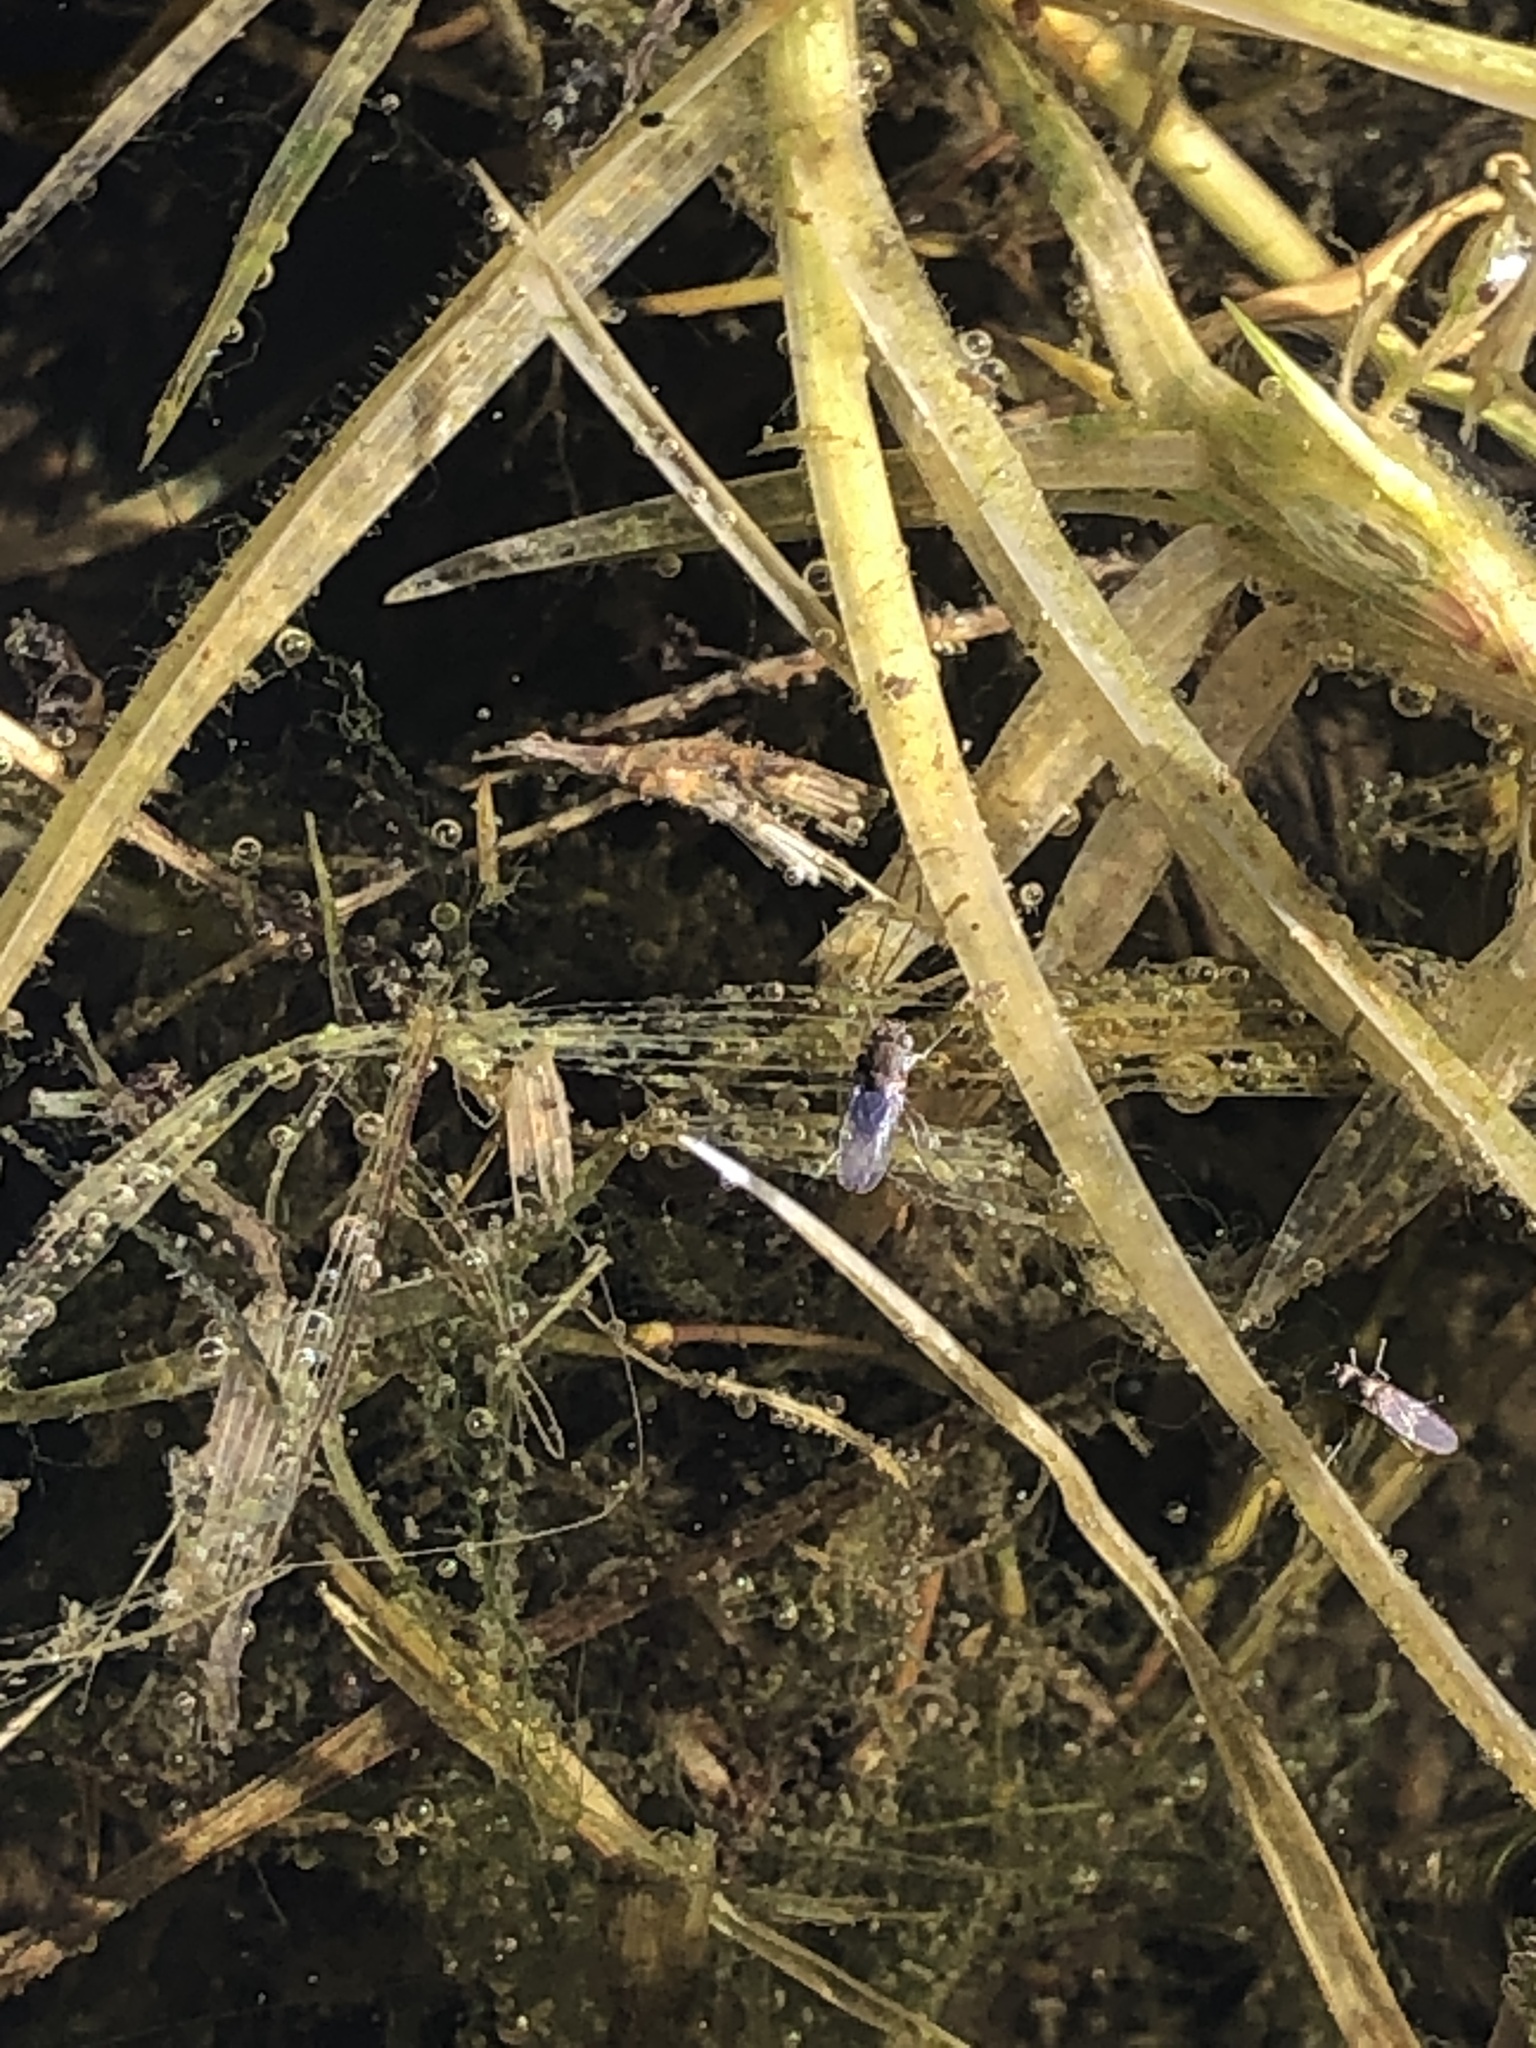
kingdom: Animalia
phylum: Arthropoda
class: Insecta
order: Diptera
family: Ephydridae
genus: Brachydeutera
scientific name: Brachydeutera sturtevanti
